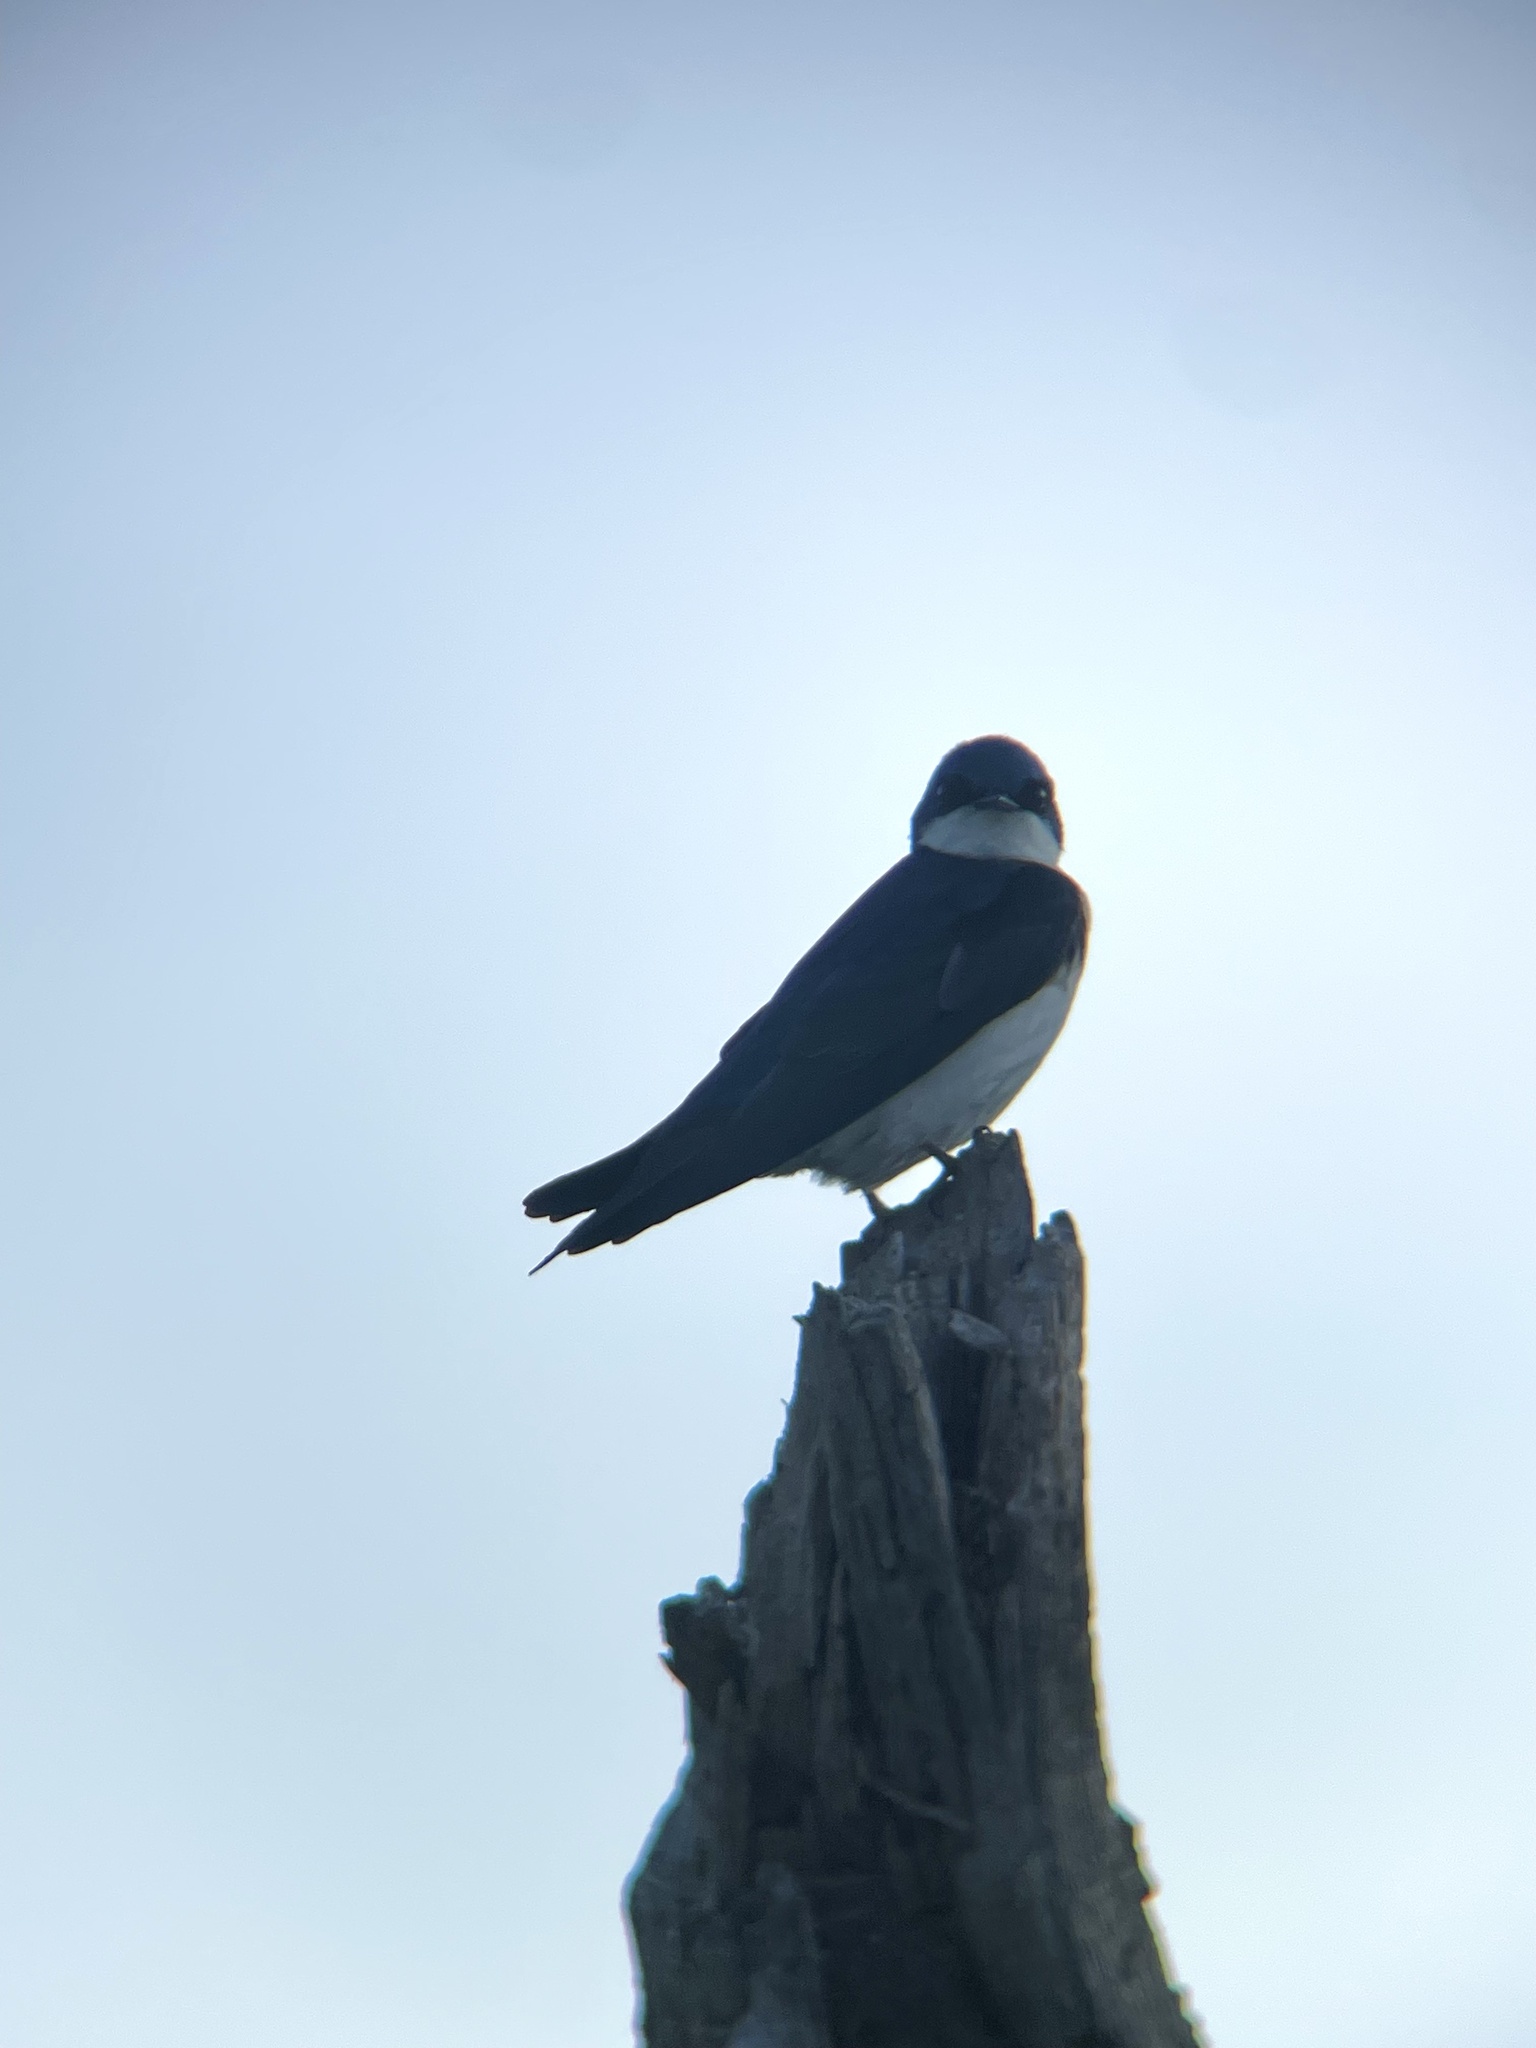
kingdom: Animalia
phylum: Chordata
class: Aves
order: Passeriformes
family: Hirundinidae
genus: Tachycineta
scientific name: Tachycineta bicolor
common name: Tree swallow
